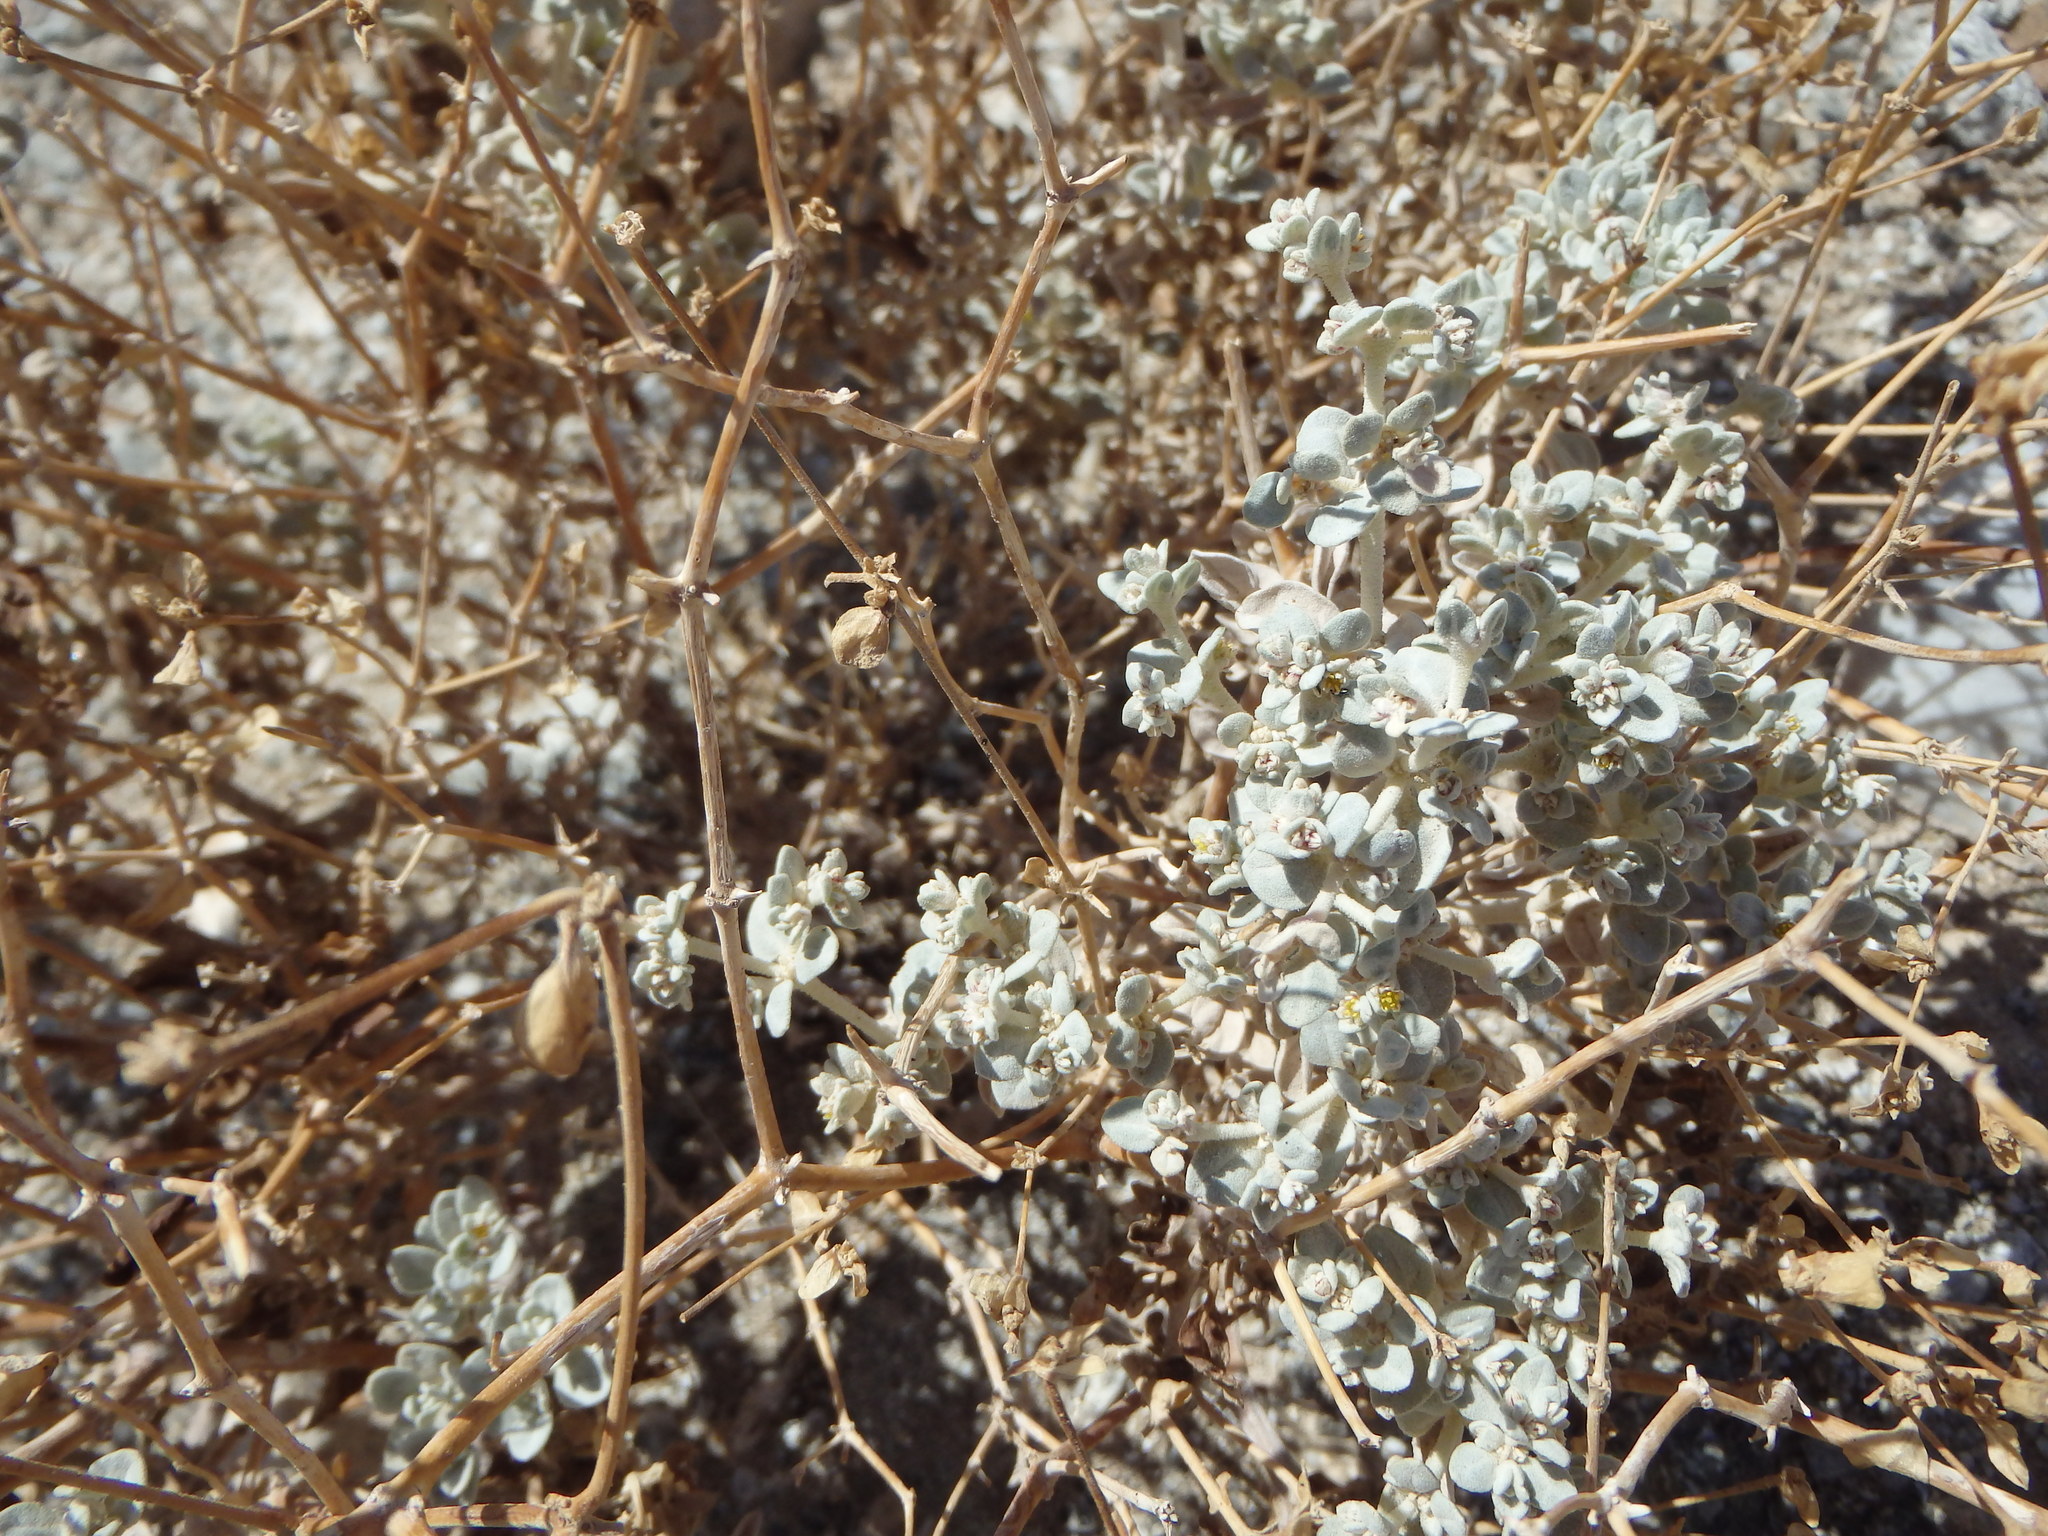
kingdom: Plantae
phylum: Tracheophyta
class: Magnoliopsida
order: Caryophyllales
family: Amaranthaceae
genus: Tidestromia
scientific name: Tidestromia suffruticosa
